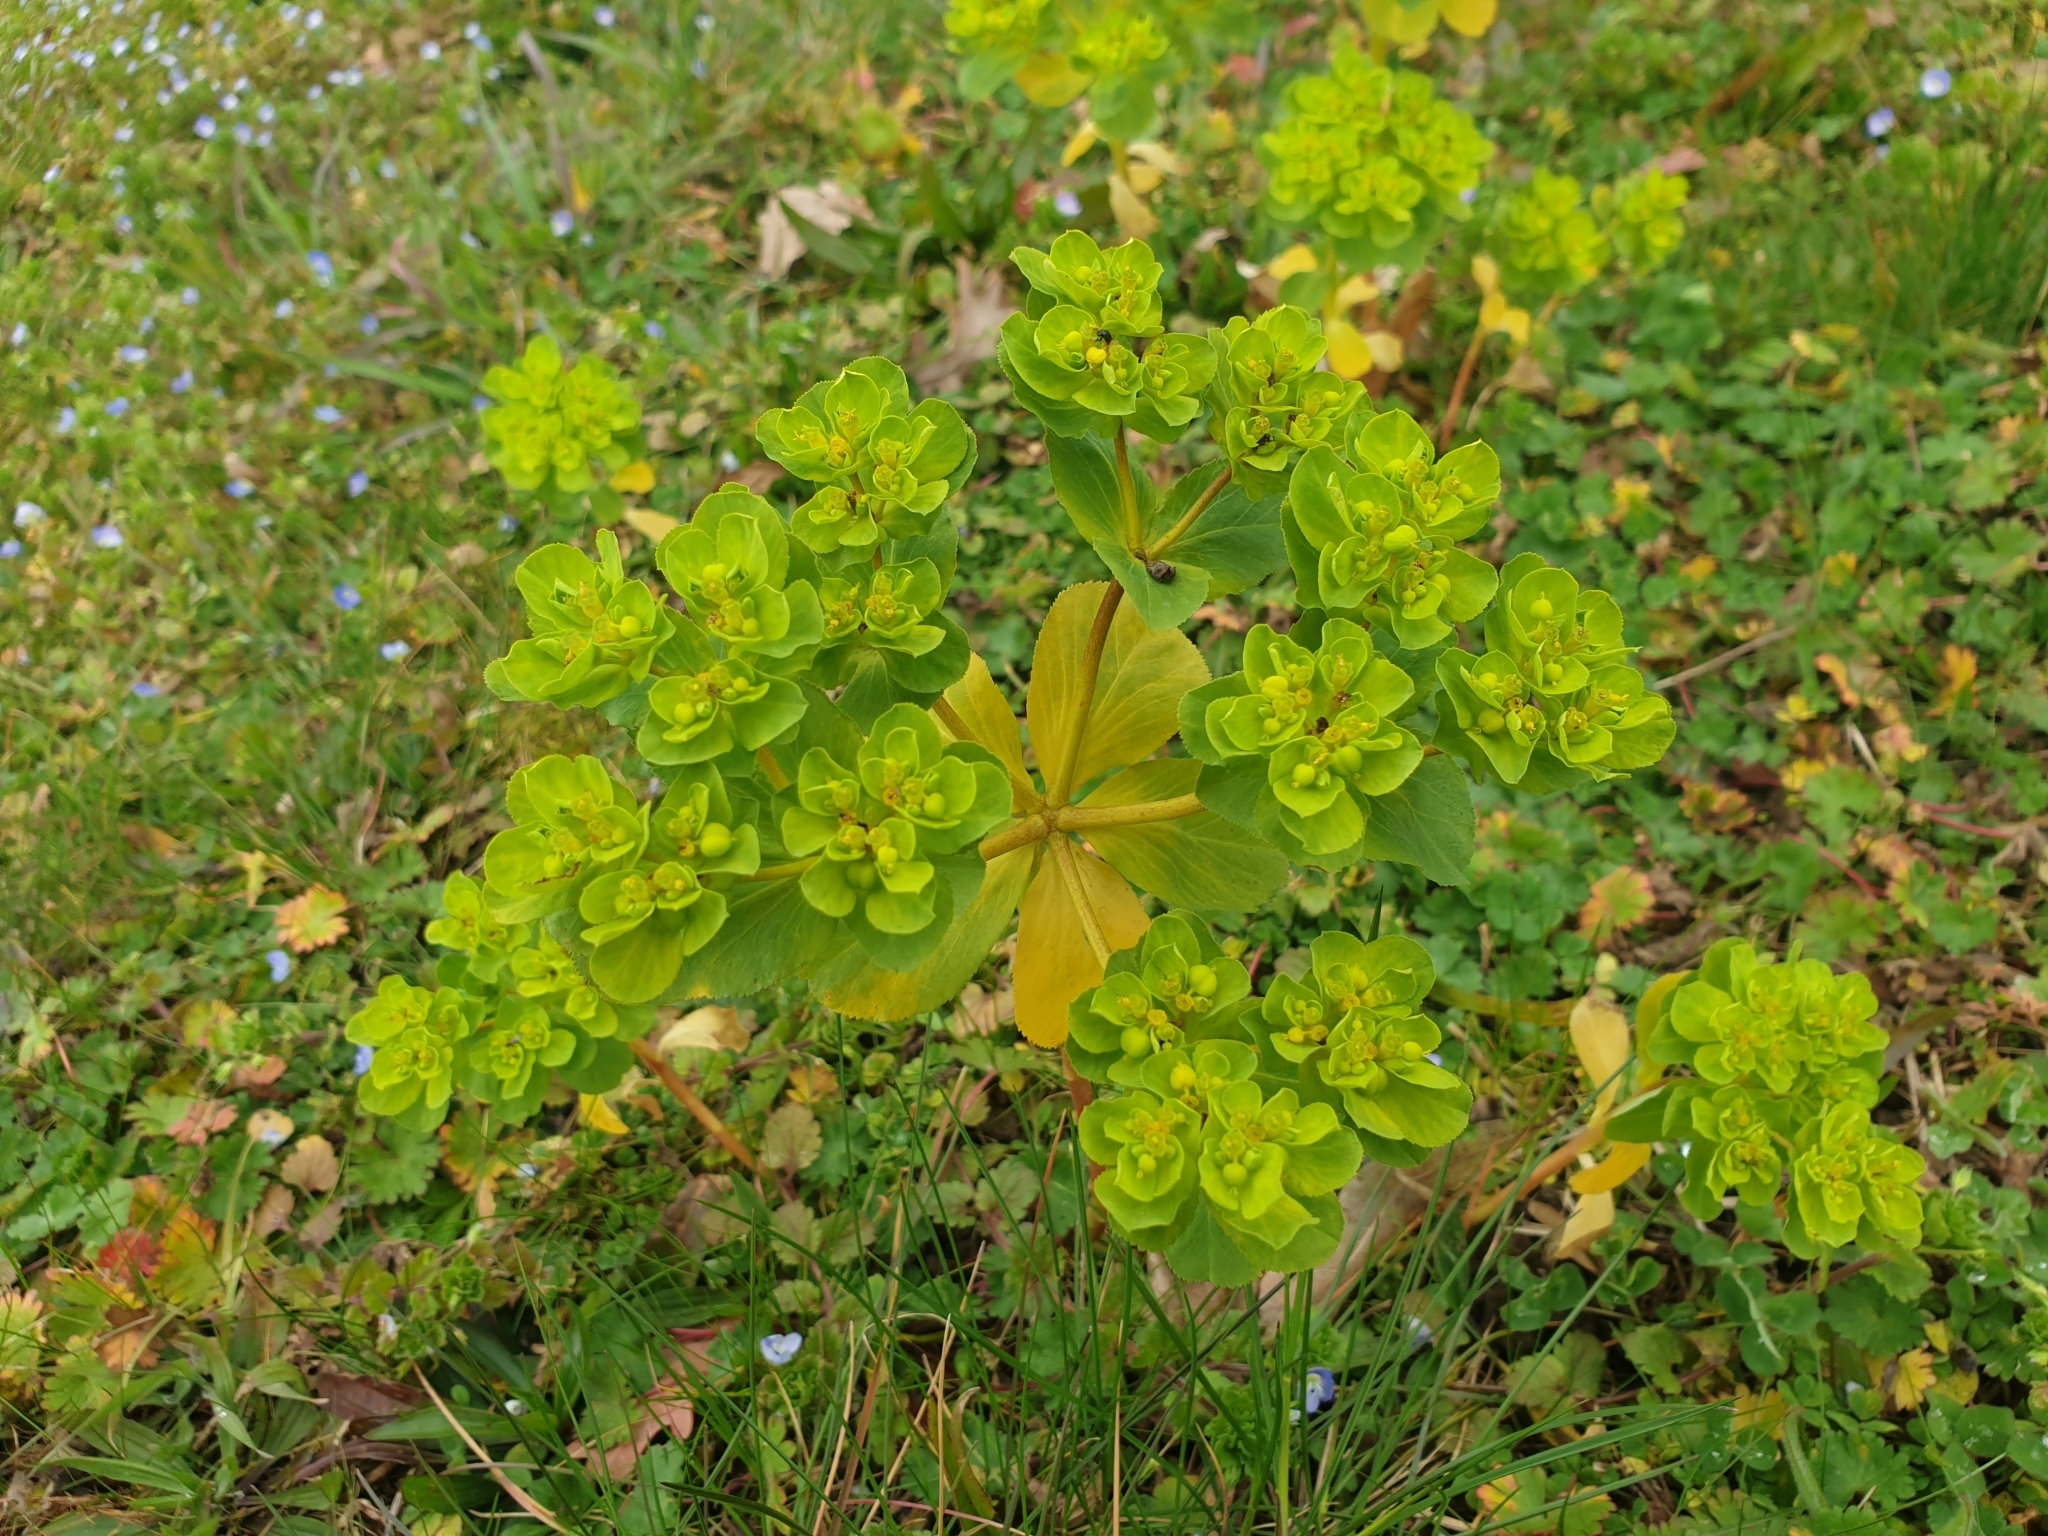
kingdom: Plantae
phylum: Tracheophyta
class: Magnoliopsida
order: Malpighiales
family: Euphorbiaceae
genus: Euphorbia
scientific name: Euphorbia helioscopia
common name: Sun spurge
